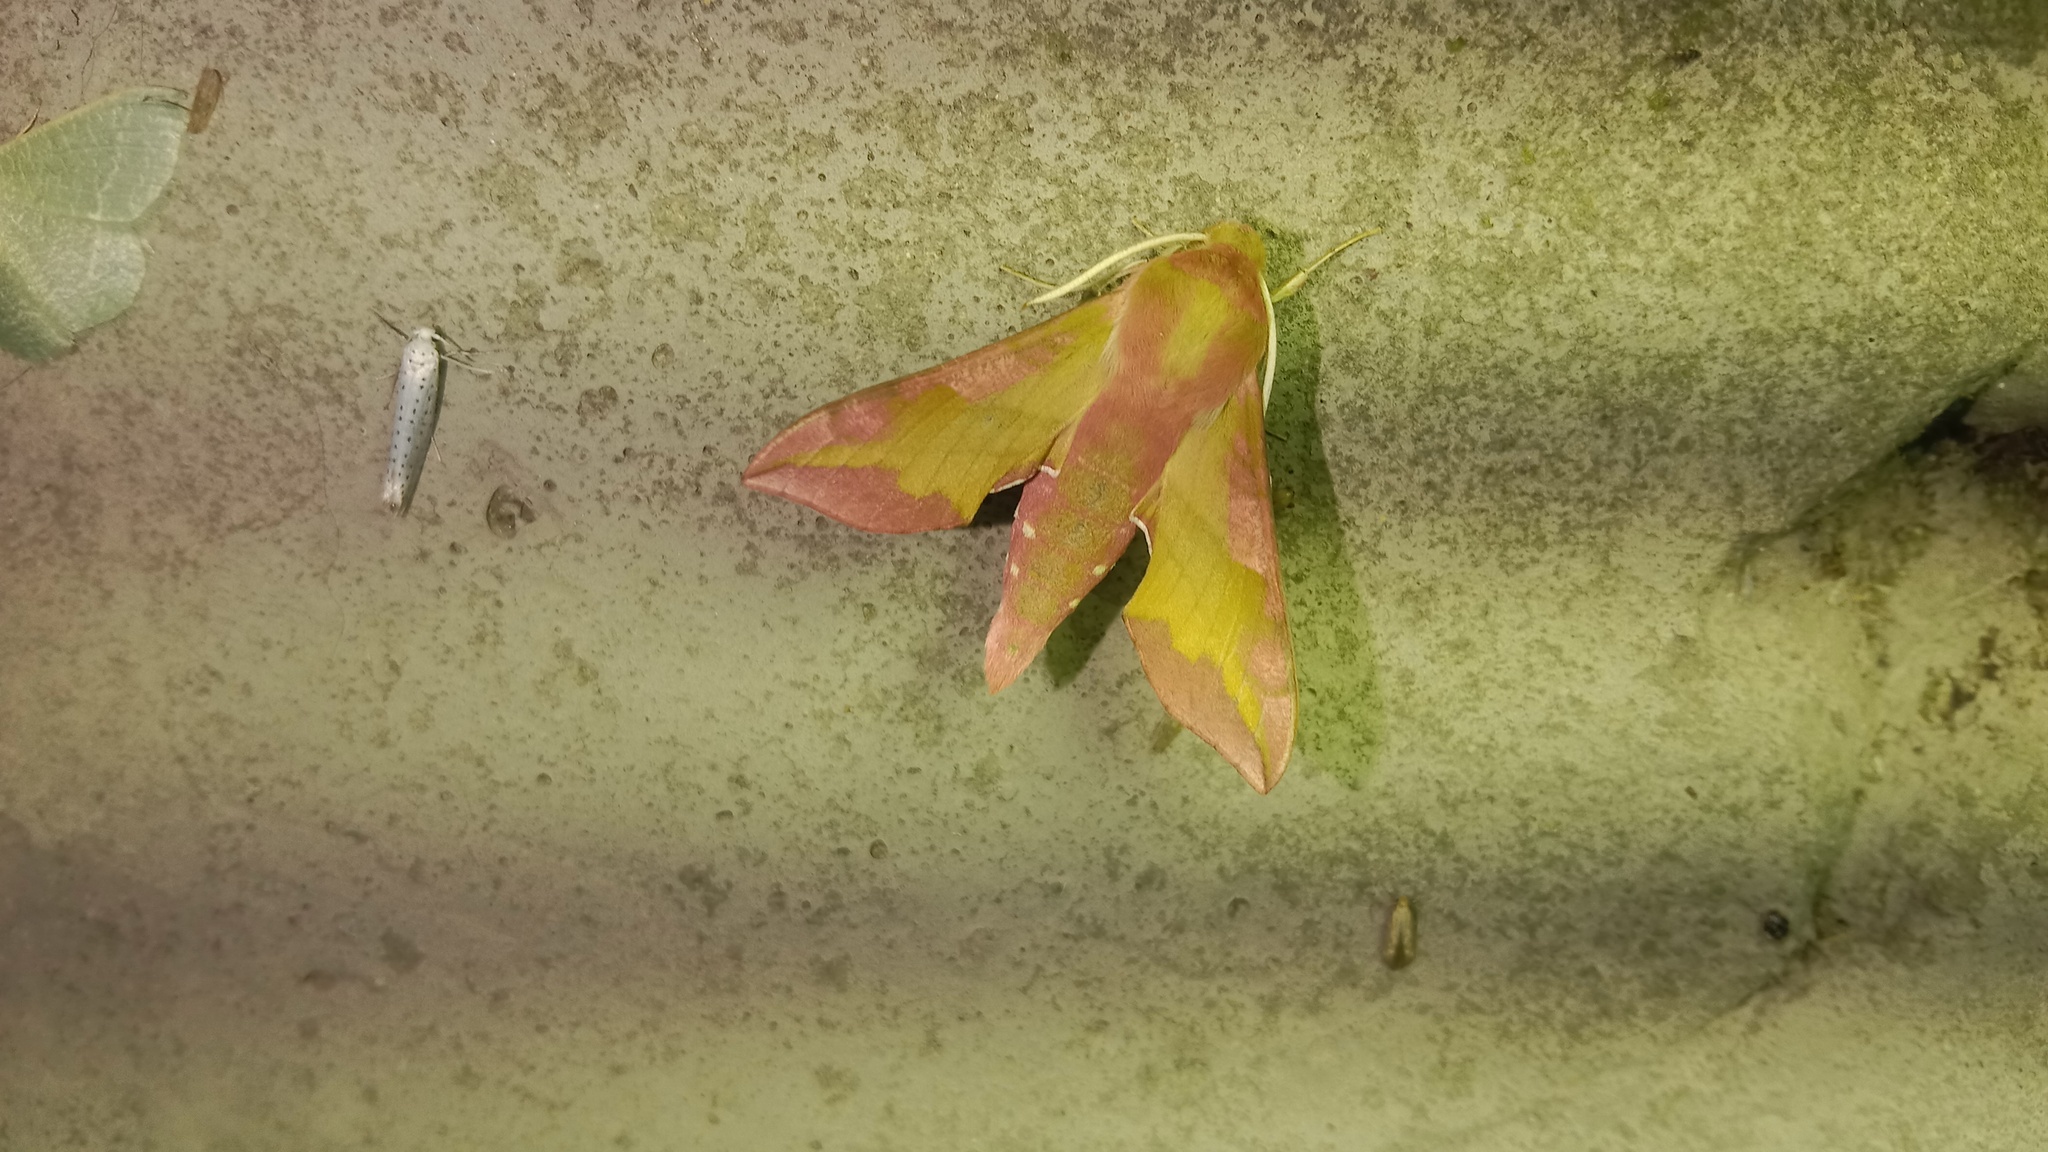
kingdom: Animalia
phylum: Arthropoda
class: Insecta
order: Lepidoptera
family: Sphingidae
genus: Deilephila
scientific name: Deilephila porcellus
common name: Small elephant hawk-moth
